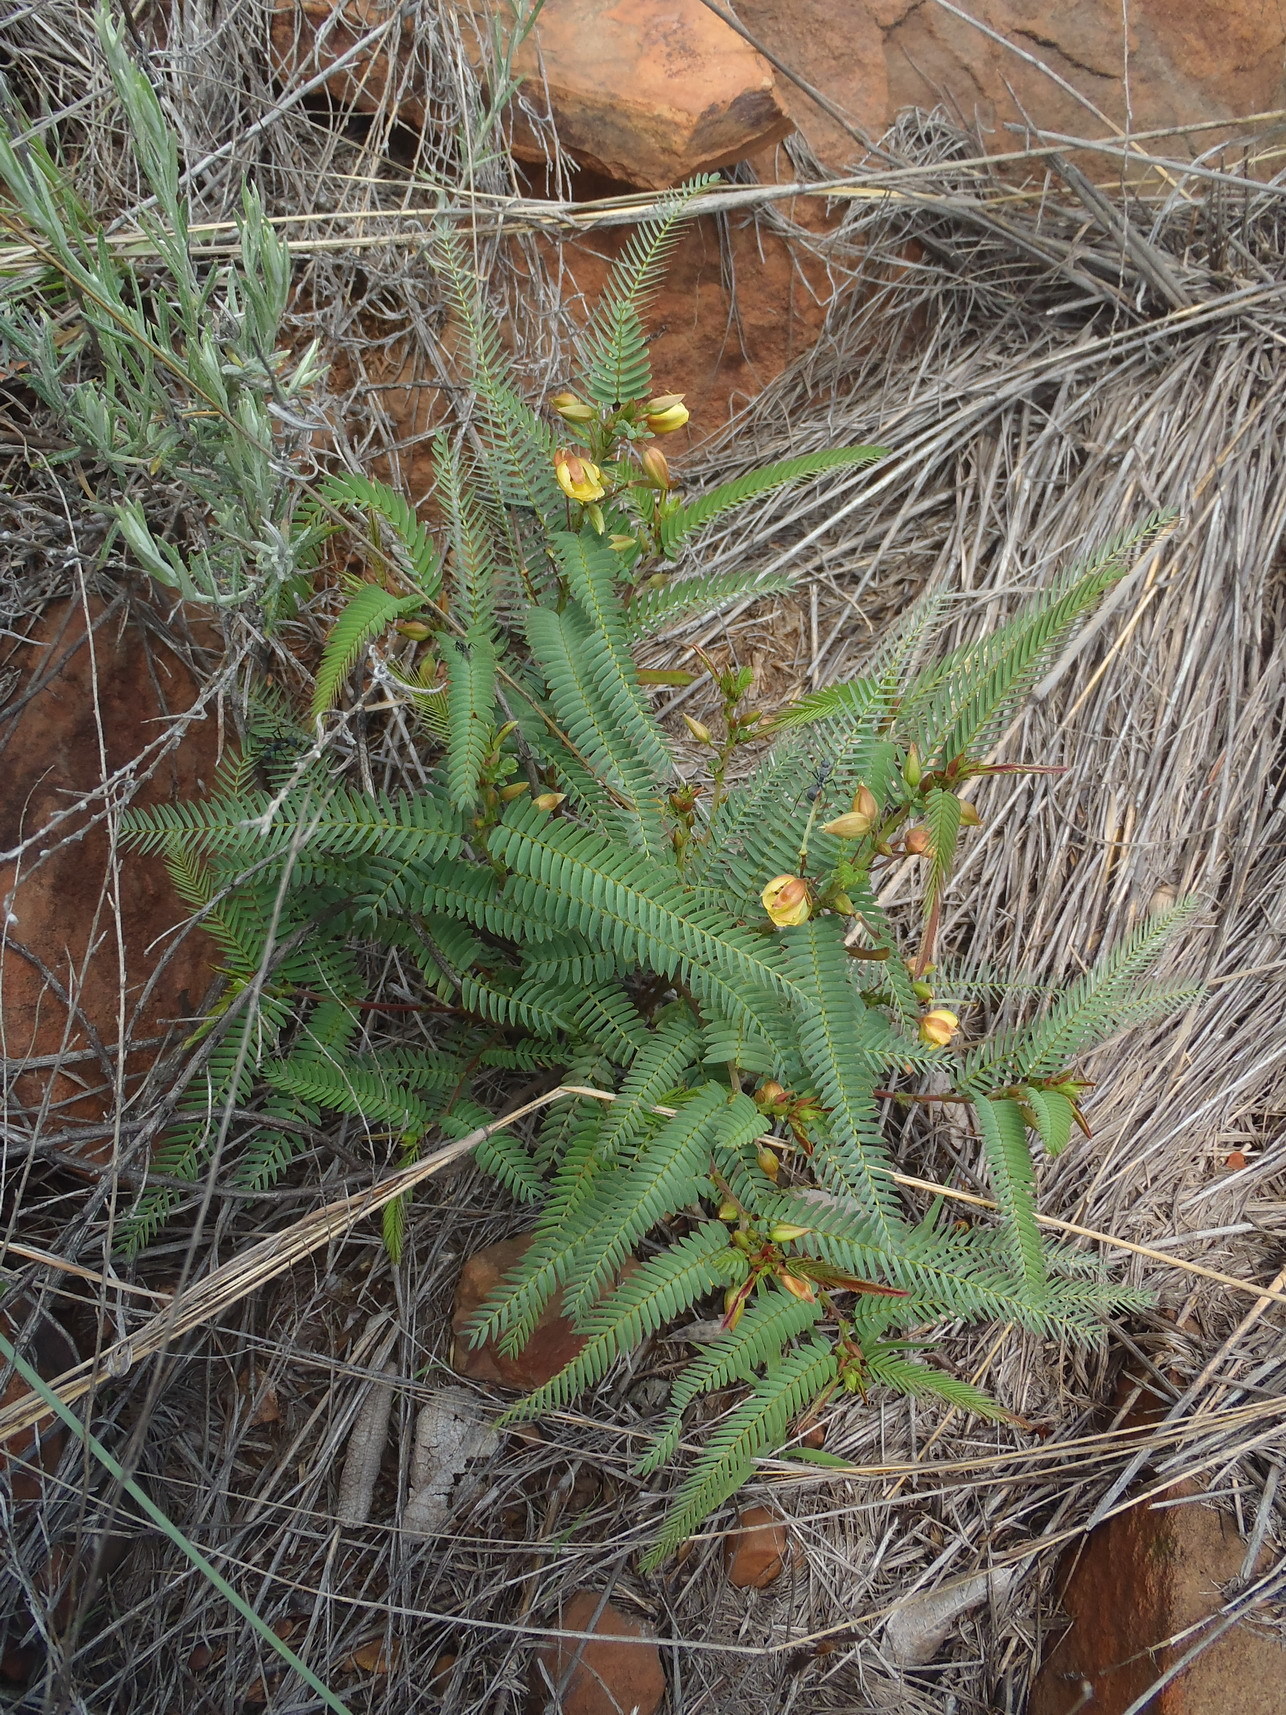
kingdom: Plantae
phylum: Tracheophyta
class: Magnoliopsida
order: Fabales
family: Fabaceae
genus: Chamaecrista
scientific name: Chamaecrista mimosoides
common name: Fish-bone cassia
